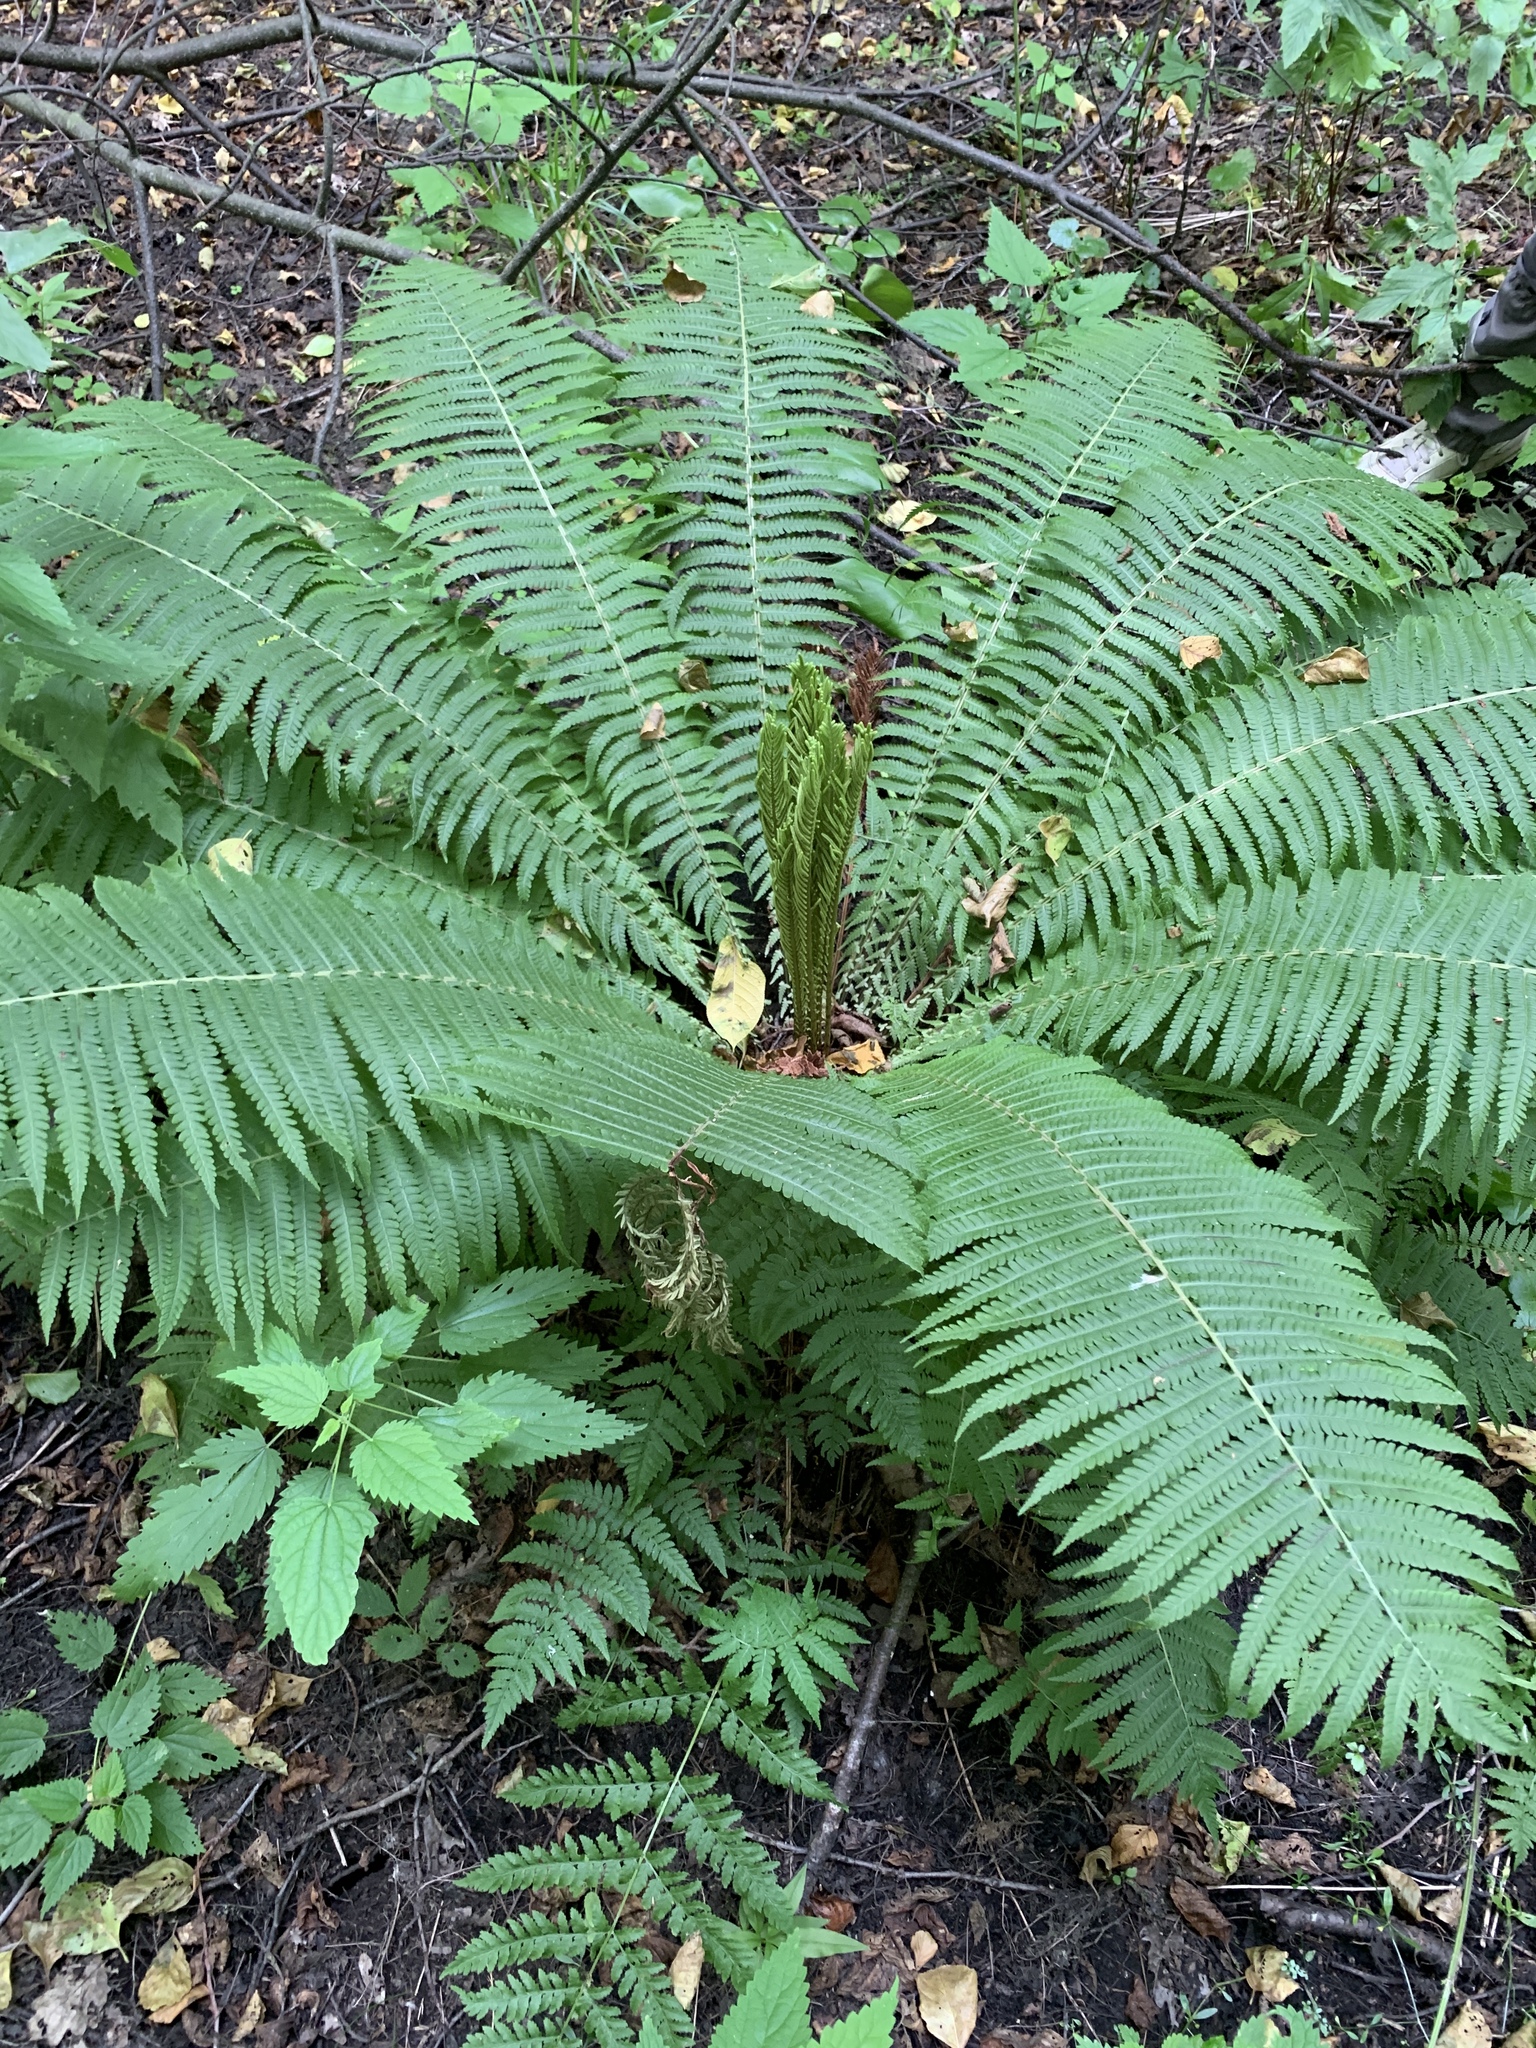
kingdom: Plantae
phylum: Tracheophyta
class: Polypodiopsida
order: Polypodiales
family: Onocleaceae
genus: Matteuccia
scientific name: Matteuccia struthiopteris
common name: Ostrich fern
